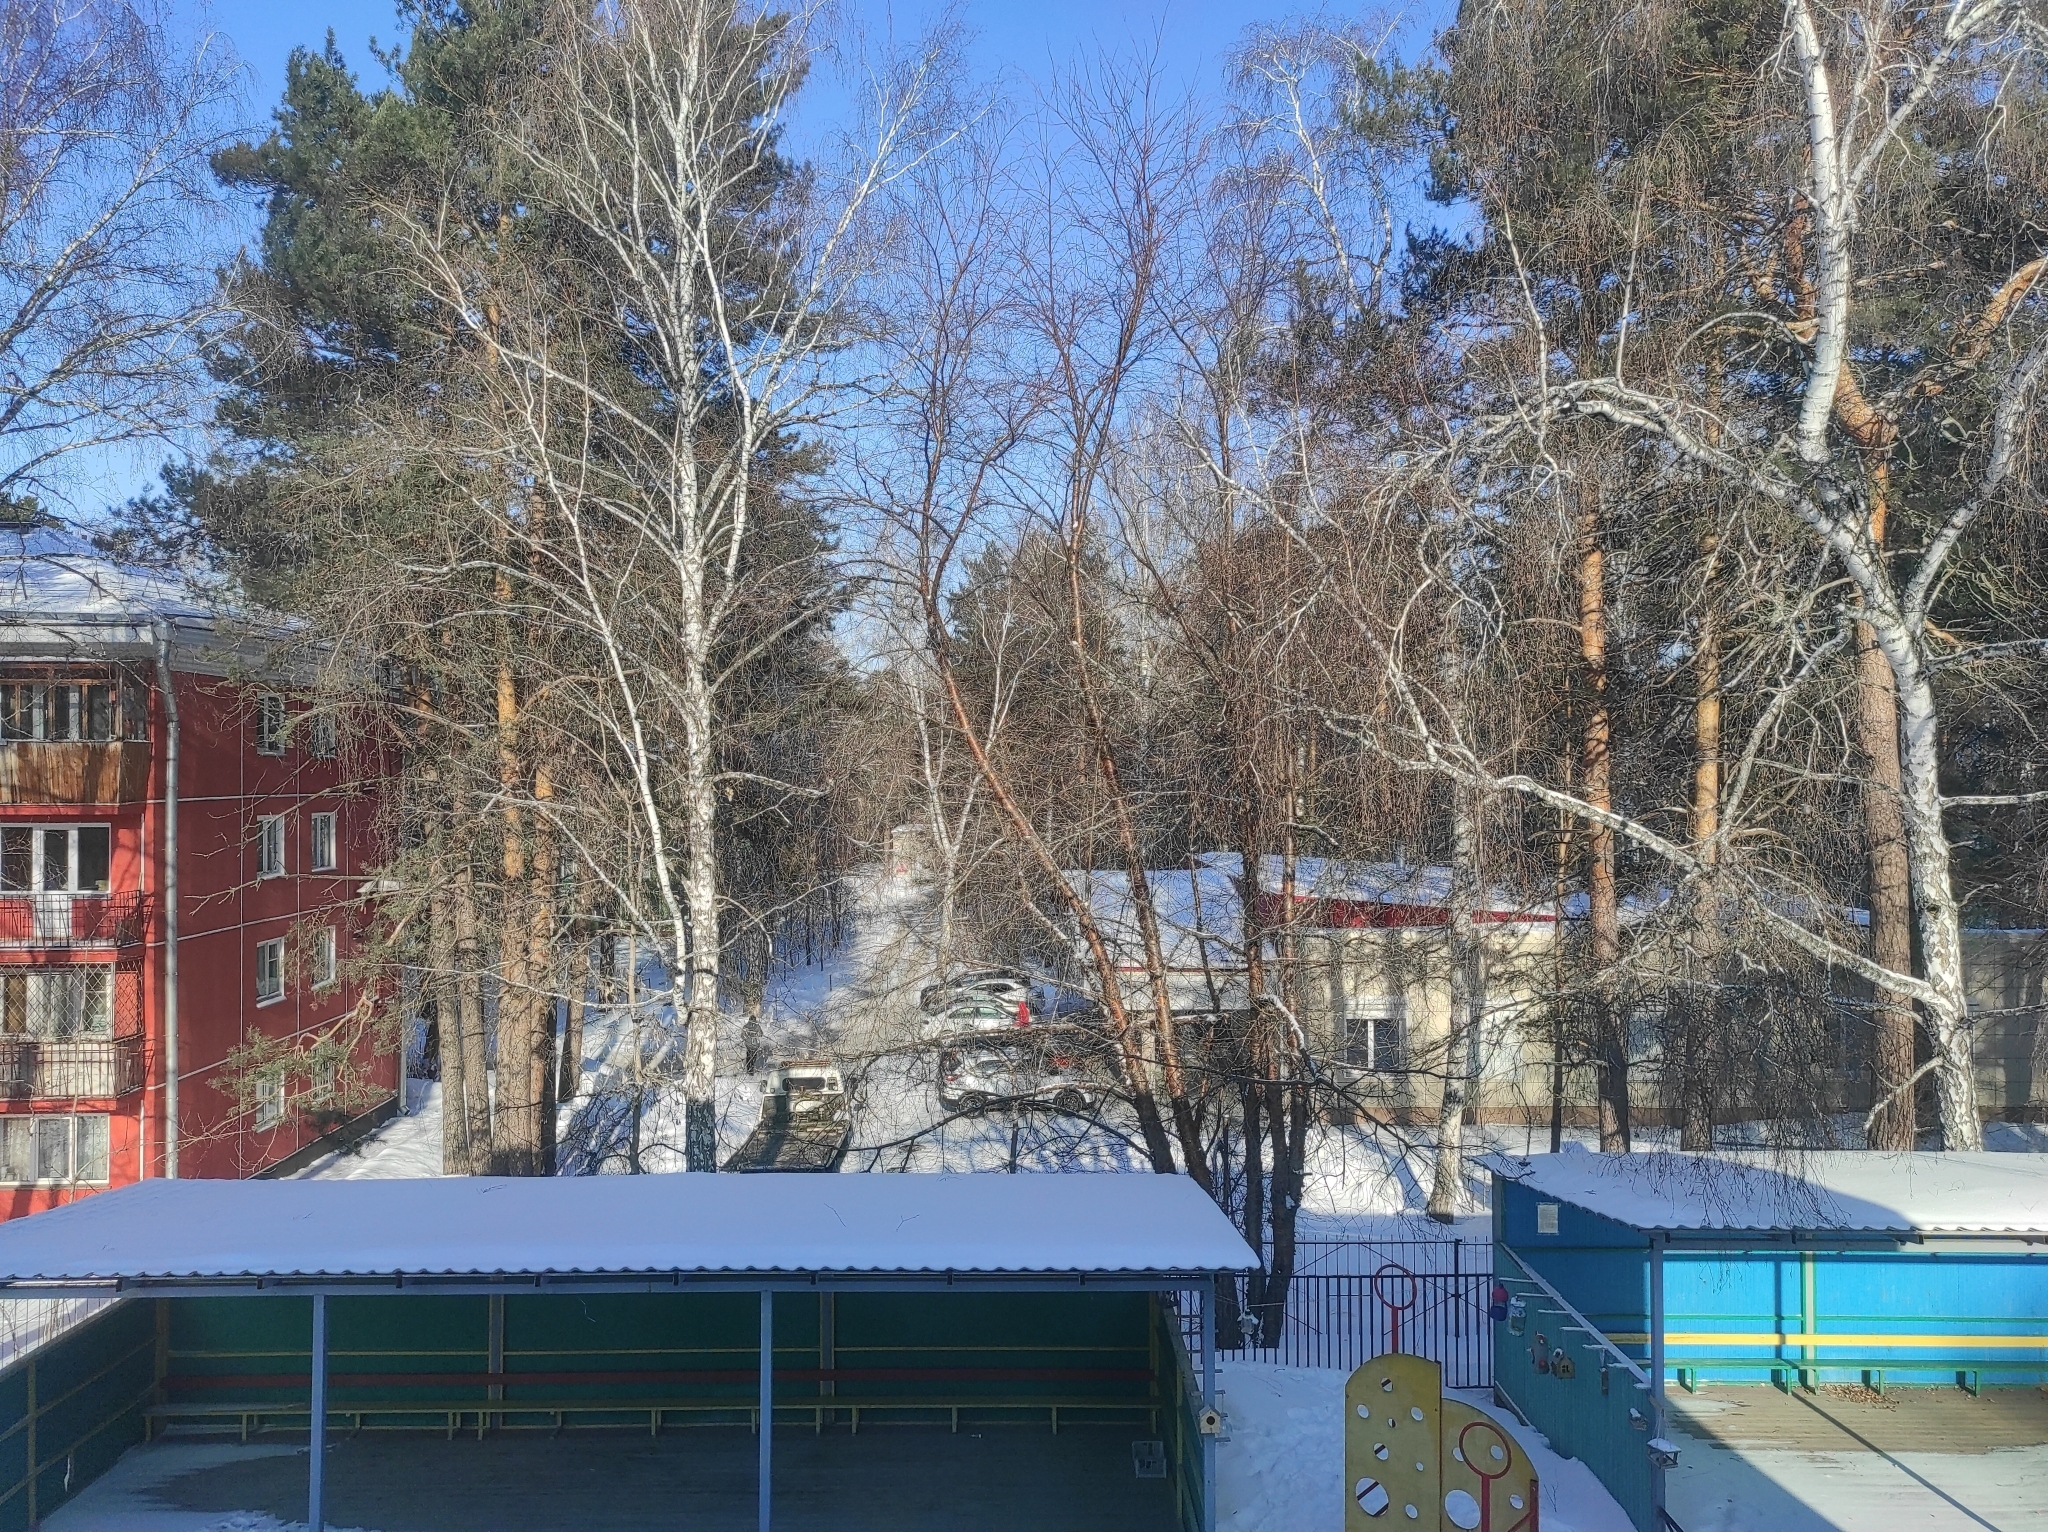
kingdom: Plantae
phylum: Tracheophyta
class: Magnoliopsida
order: Fagales
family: Betulaceae
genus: Betula
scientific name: Betula pendula
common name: Silver birch
